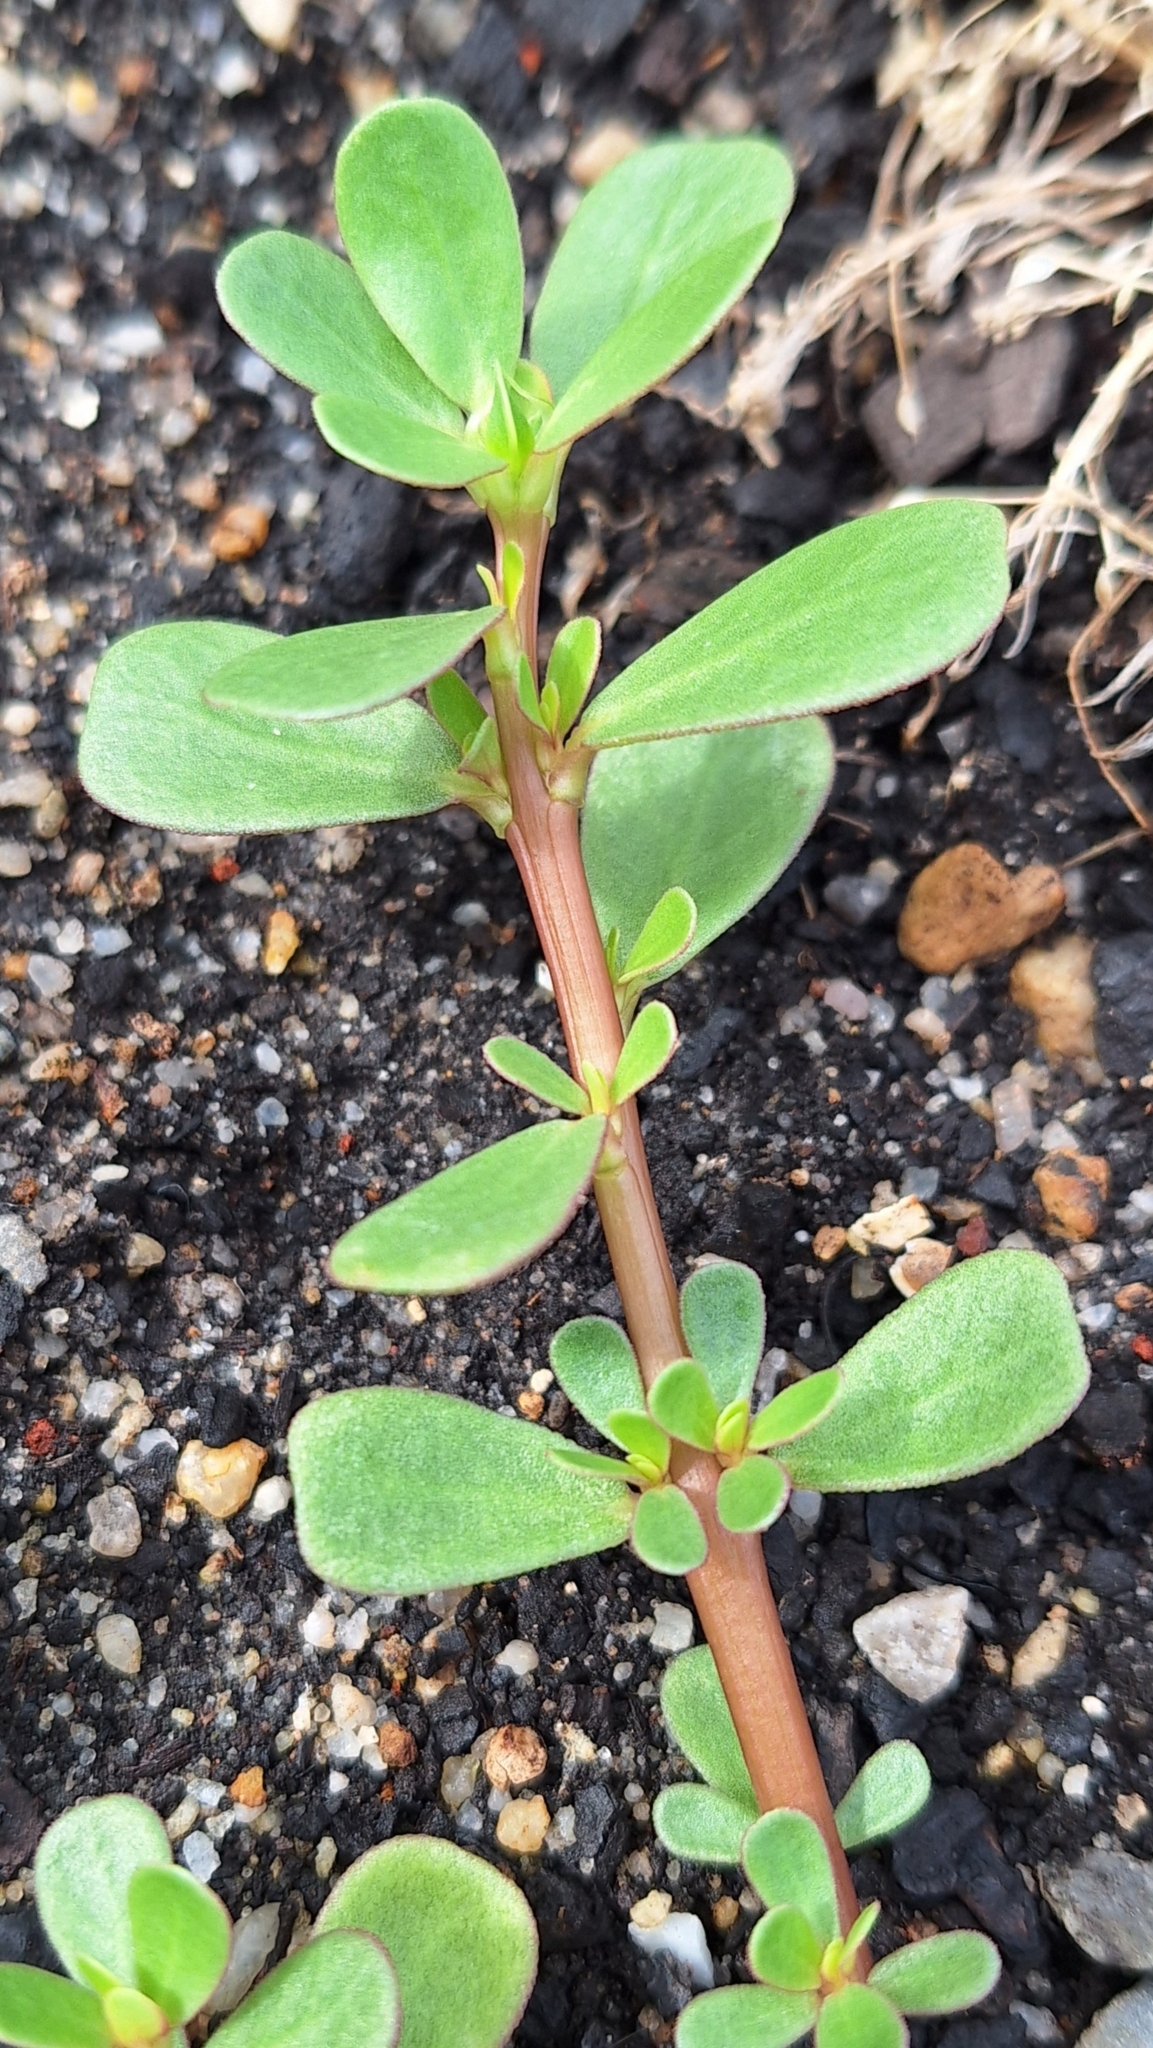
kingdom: Plantae
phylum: Tracheophyta
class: Magnoliopsida
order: Caryophyllales
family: Portulacaceae
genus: Portulaca
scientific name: Portulaca oleracea
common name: Common purslane
